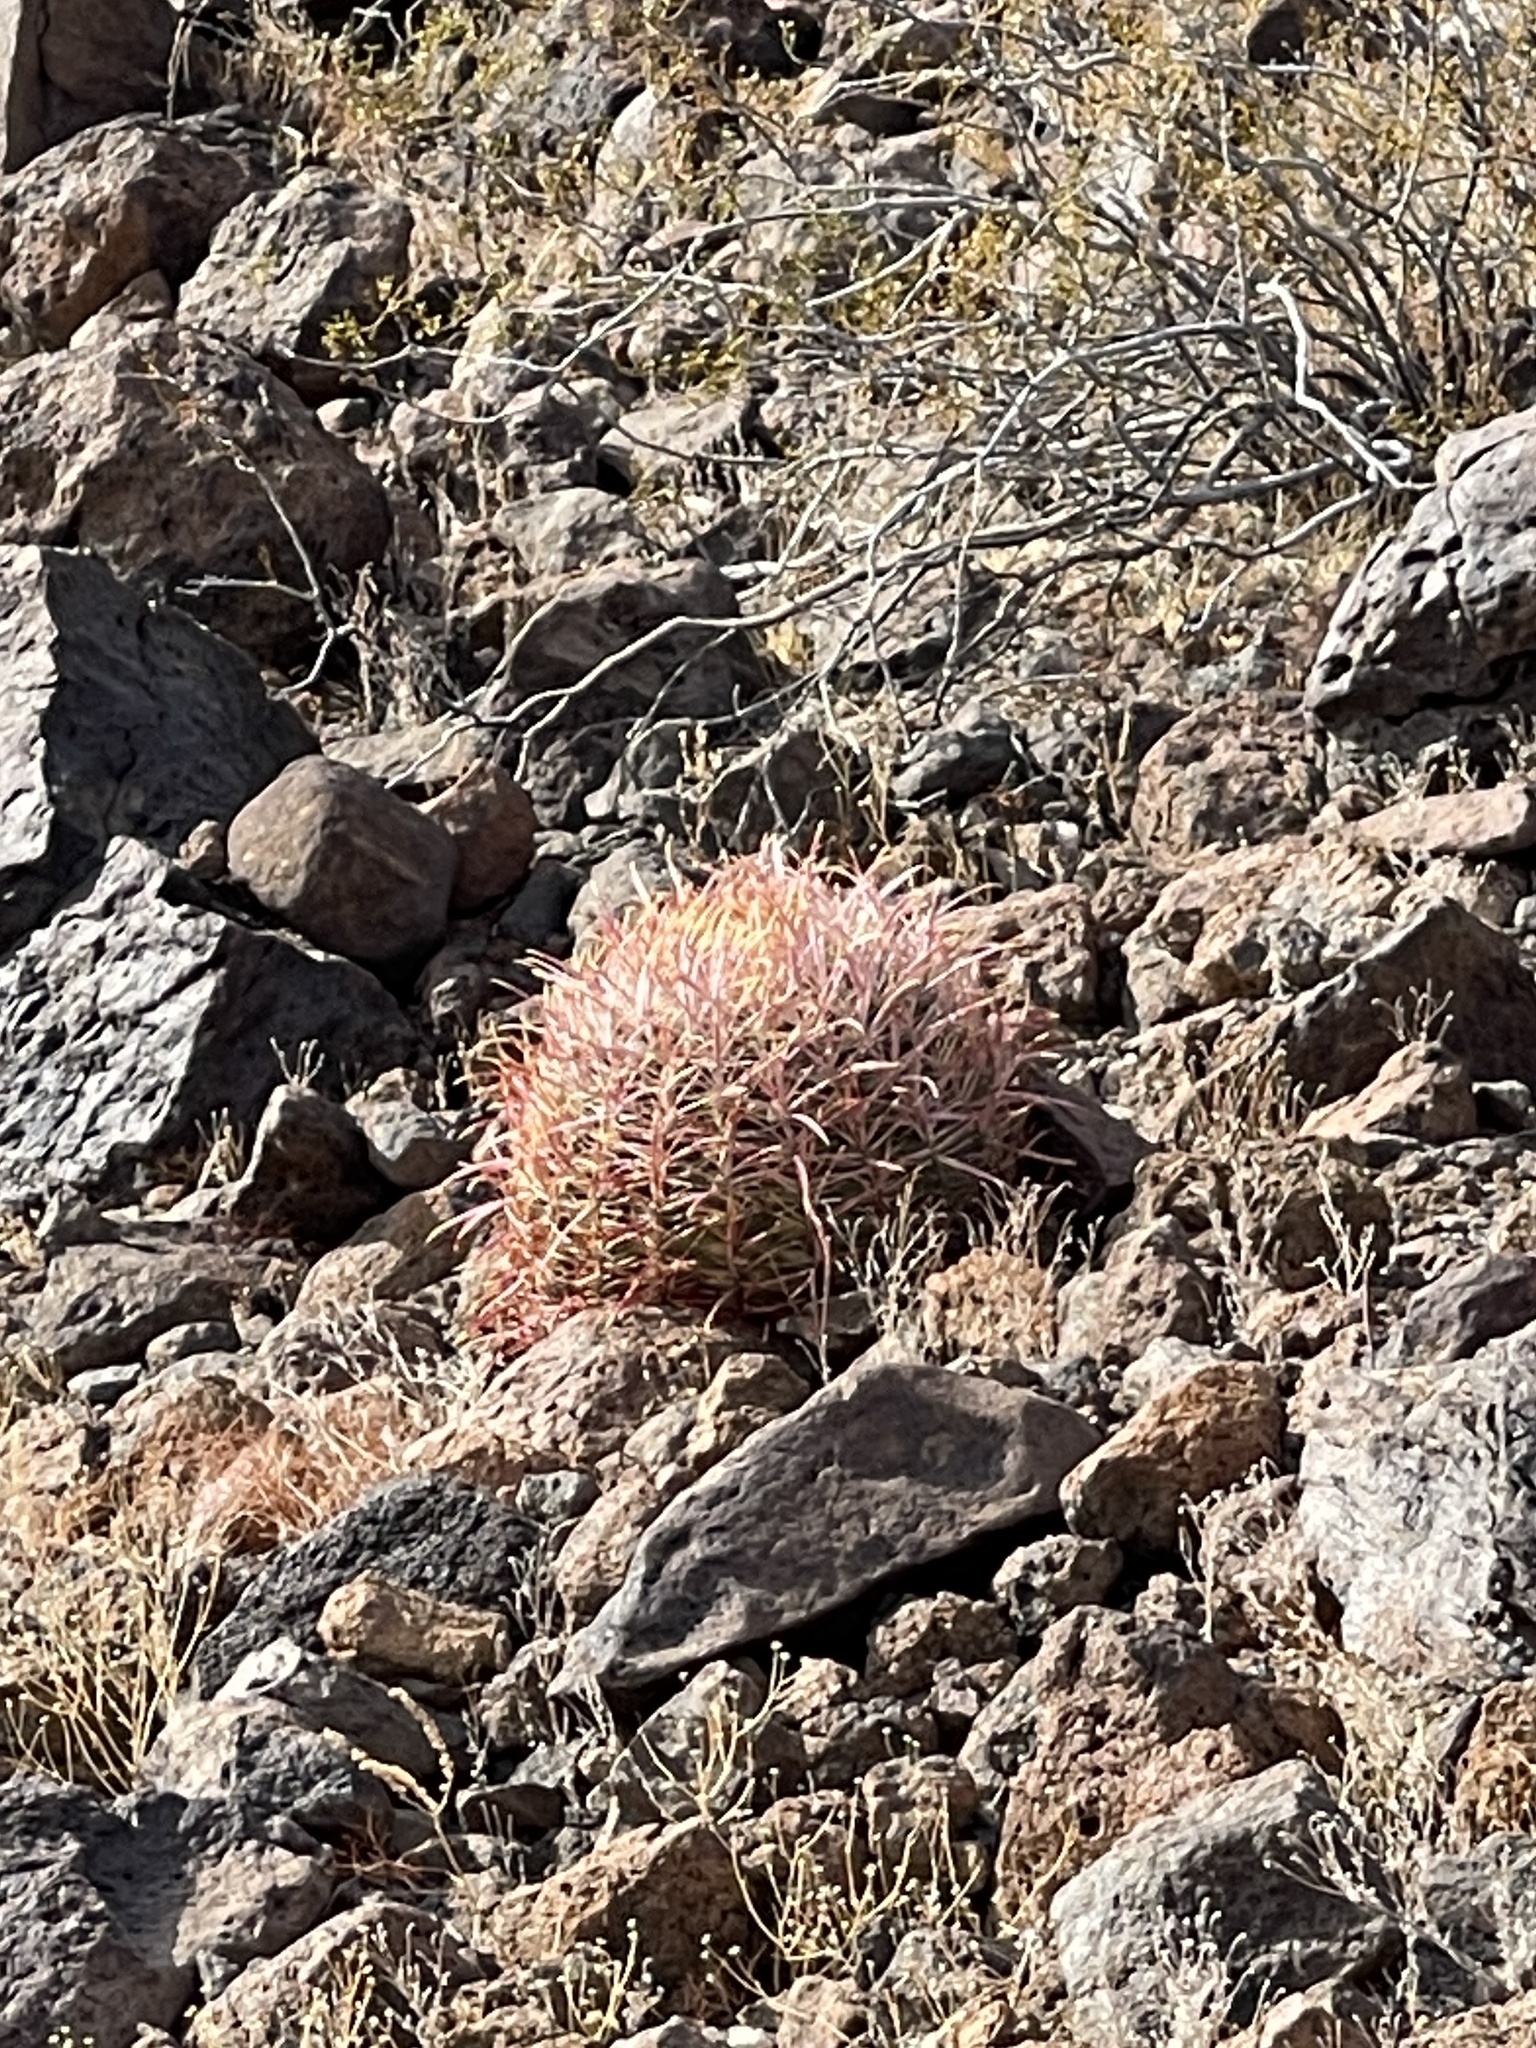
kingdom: Plantae
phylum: Tracheophyta
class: Magnoliopsida
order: Caryophyllales
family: Cactaceae
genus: Ferocactus
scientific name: Ferocactus cylindraceus
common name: California barrel cactus
